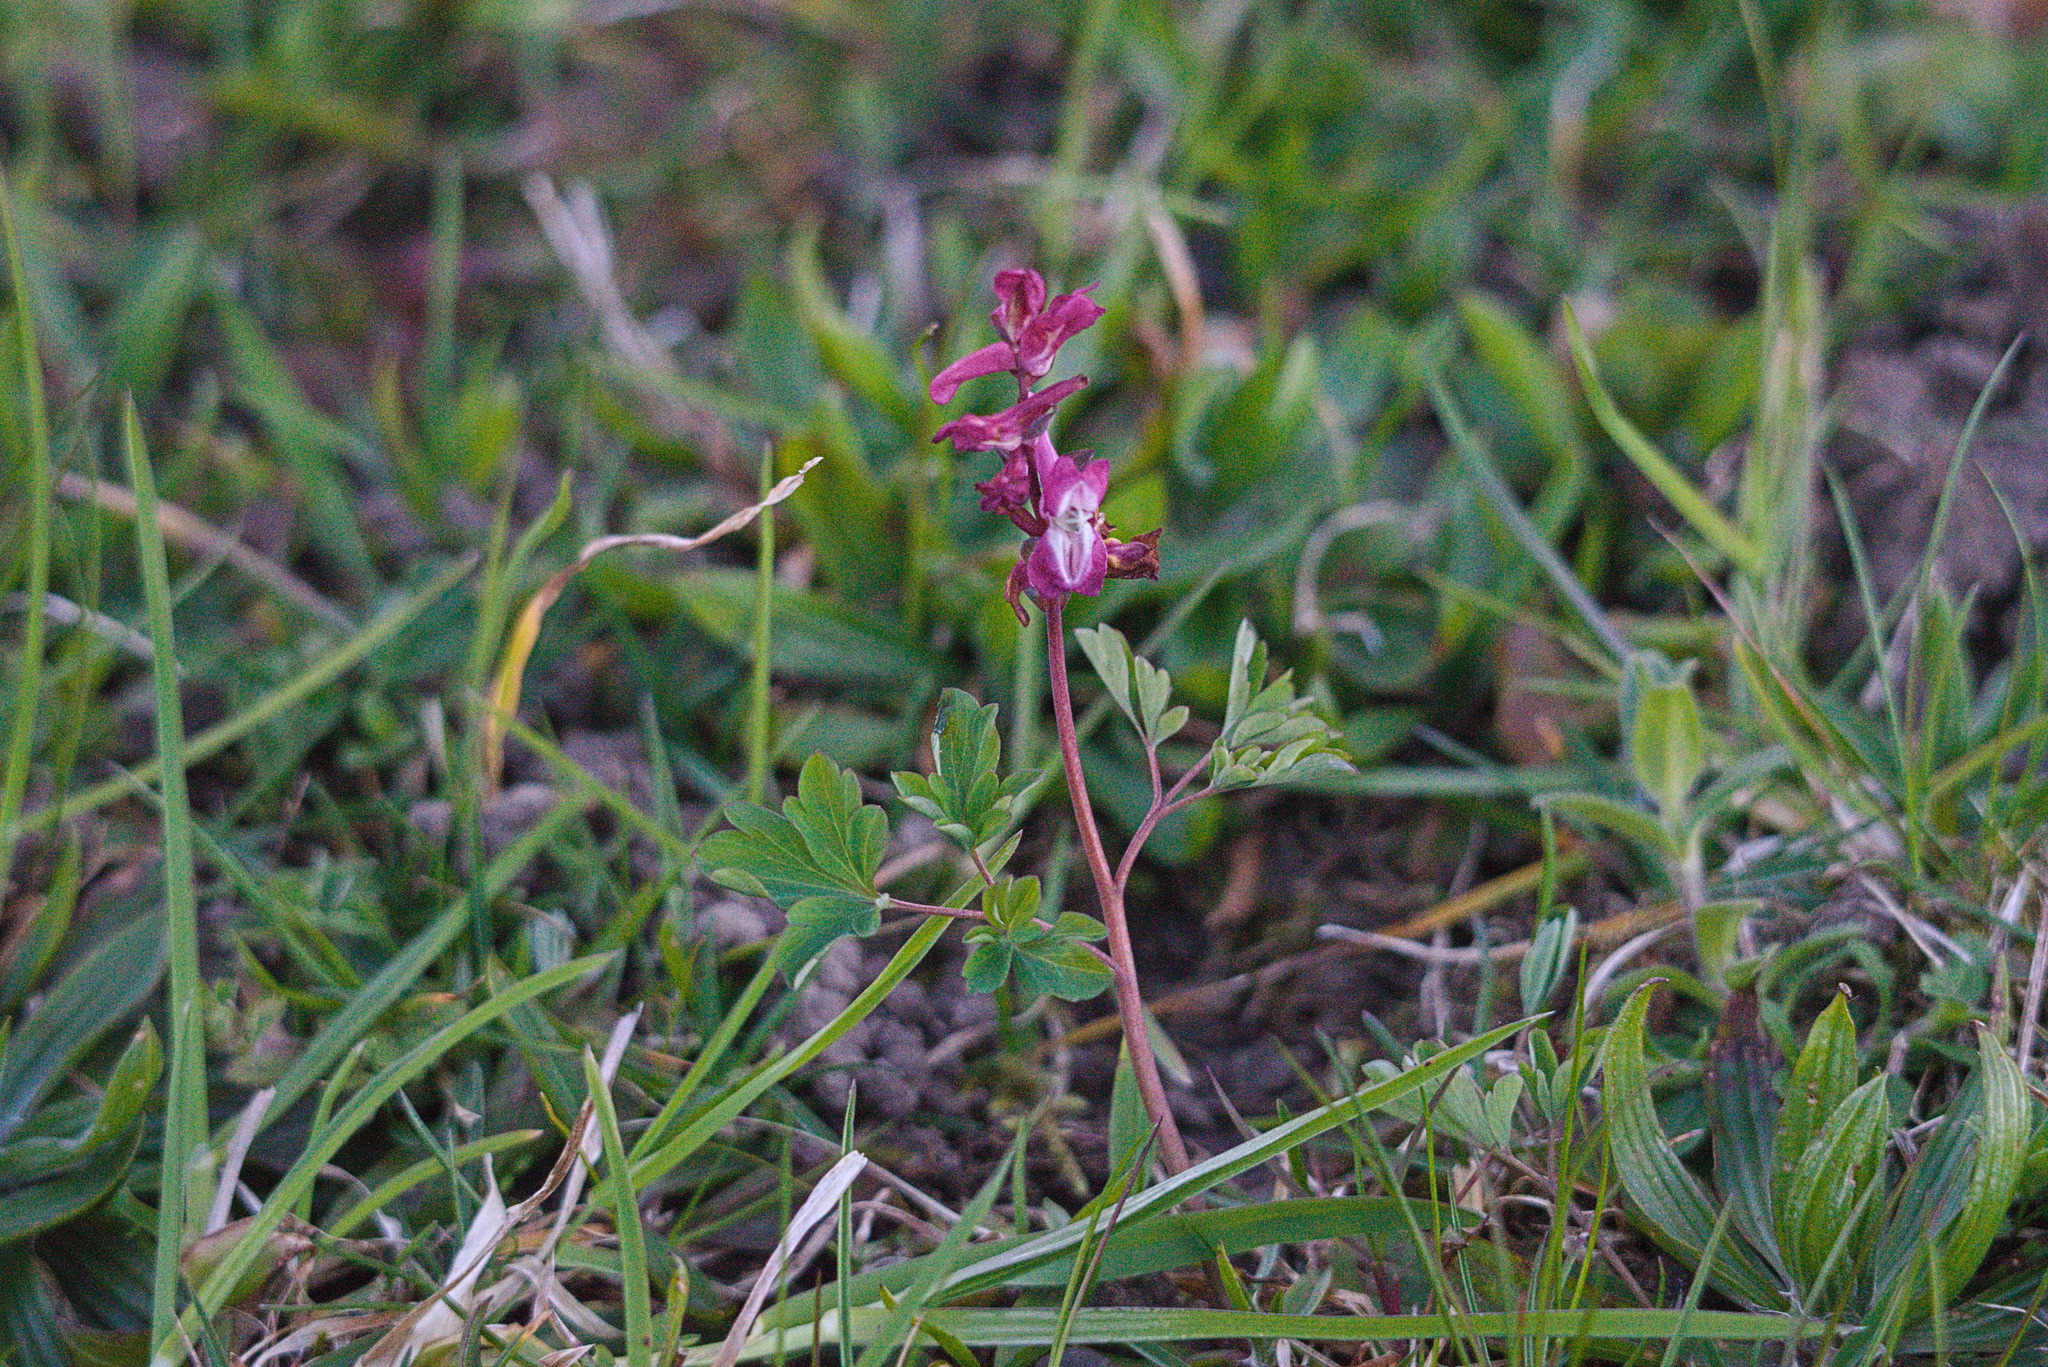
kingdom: Plantae
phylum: Tracheophyta
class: Magnoliopsida
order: Ranunculales
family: Papaveraceae
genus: Corydalis
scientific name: Corydalis cava
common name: Hollowroot
